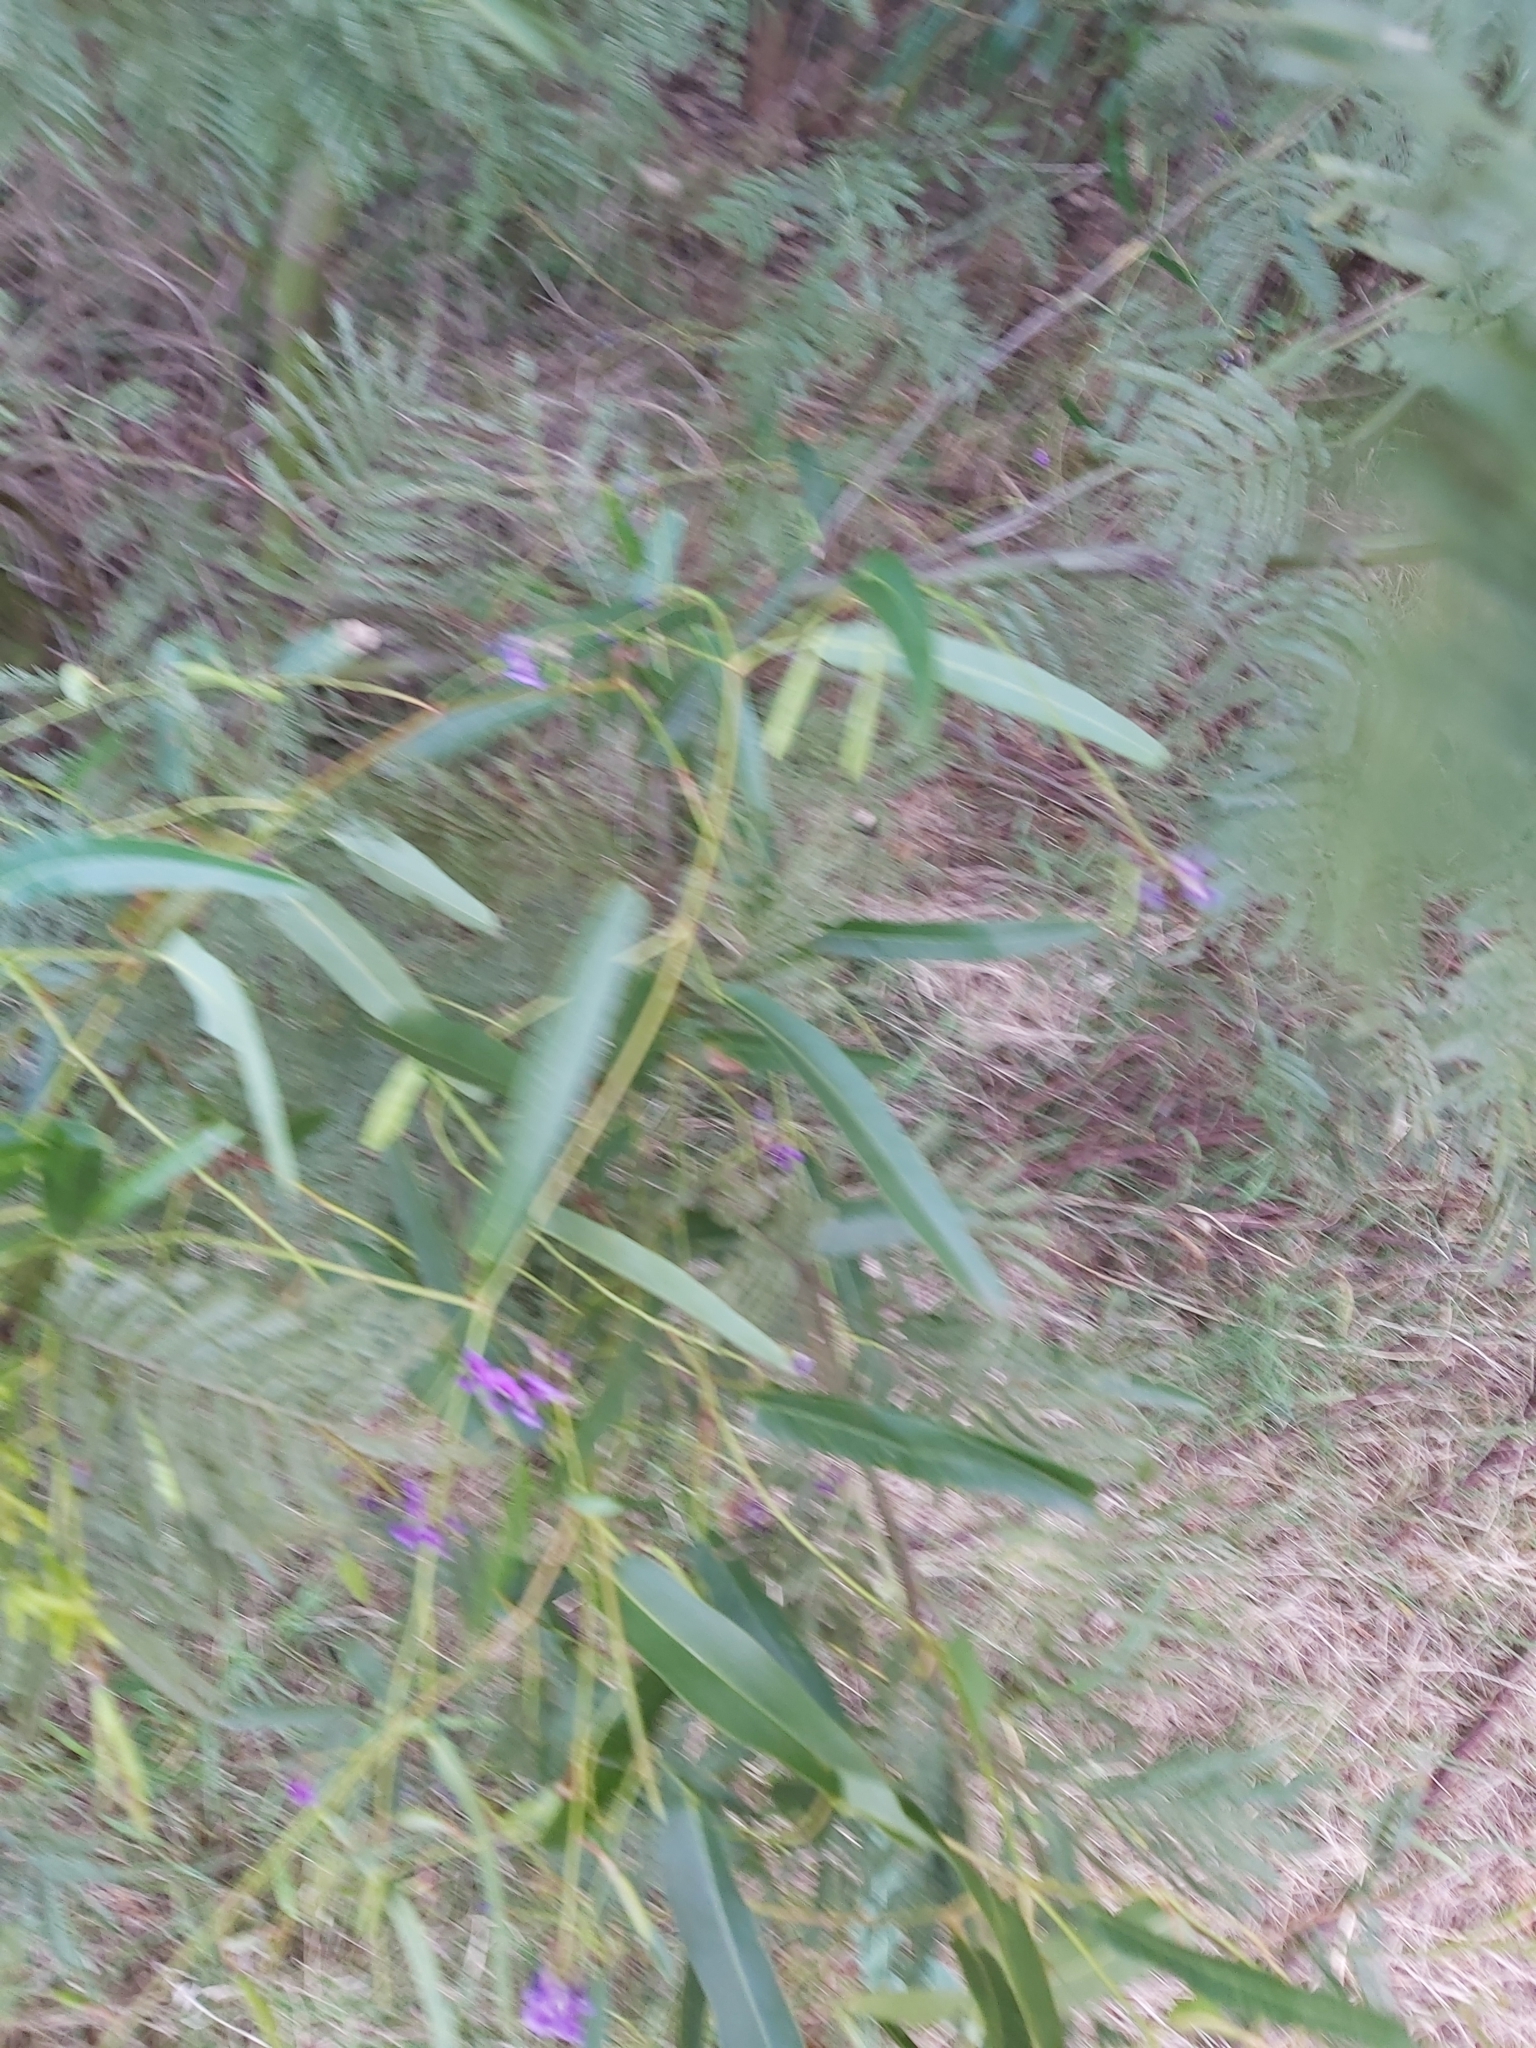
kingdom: Plantae
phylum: Tracheophyta
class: Magnoliopsida
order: Fabales
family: Fabaceae
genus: Hardenbergia
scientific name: Hardenbergia violacea
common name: Coral-pea
